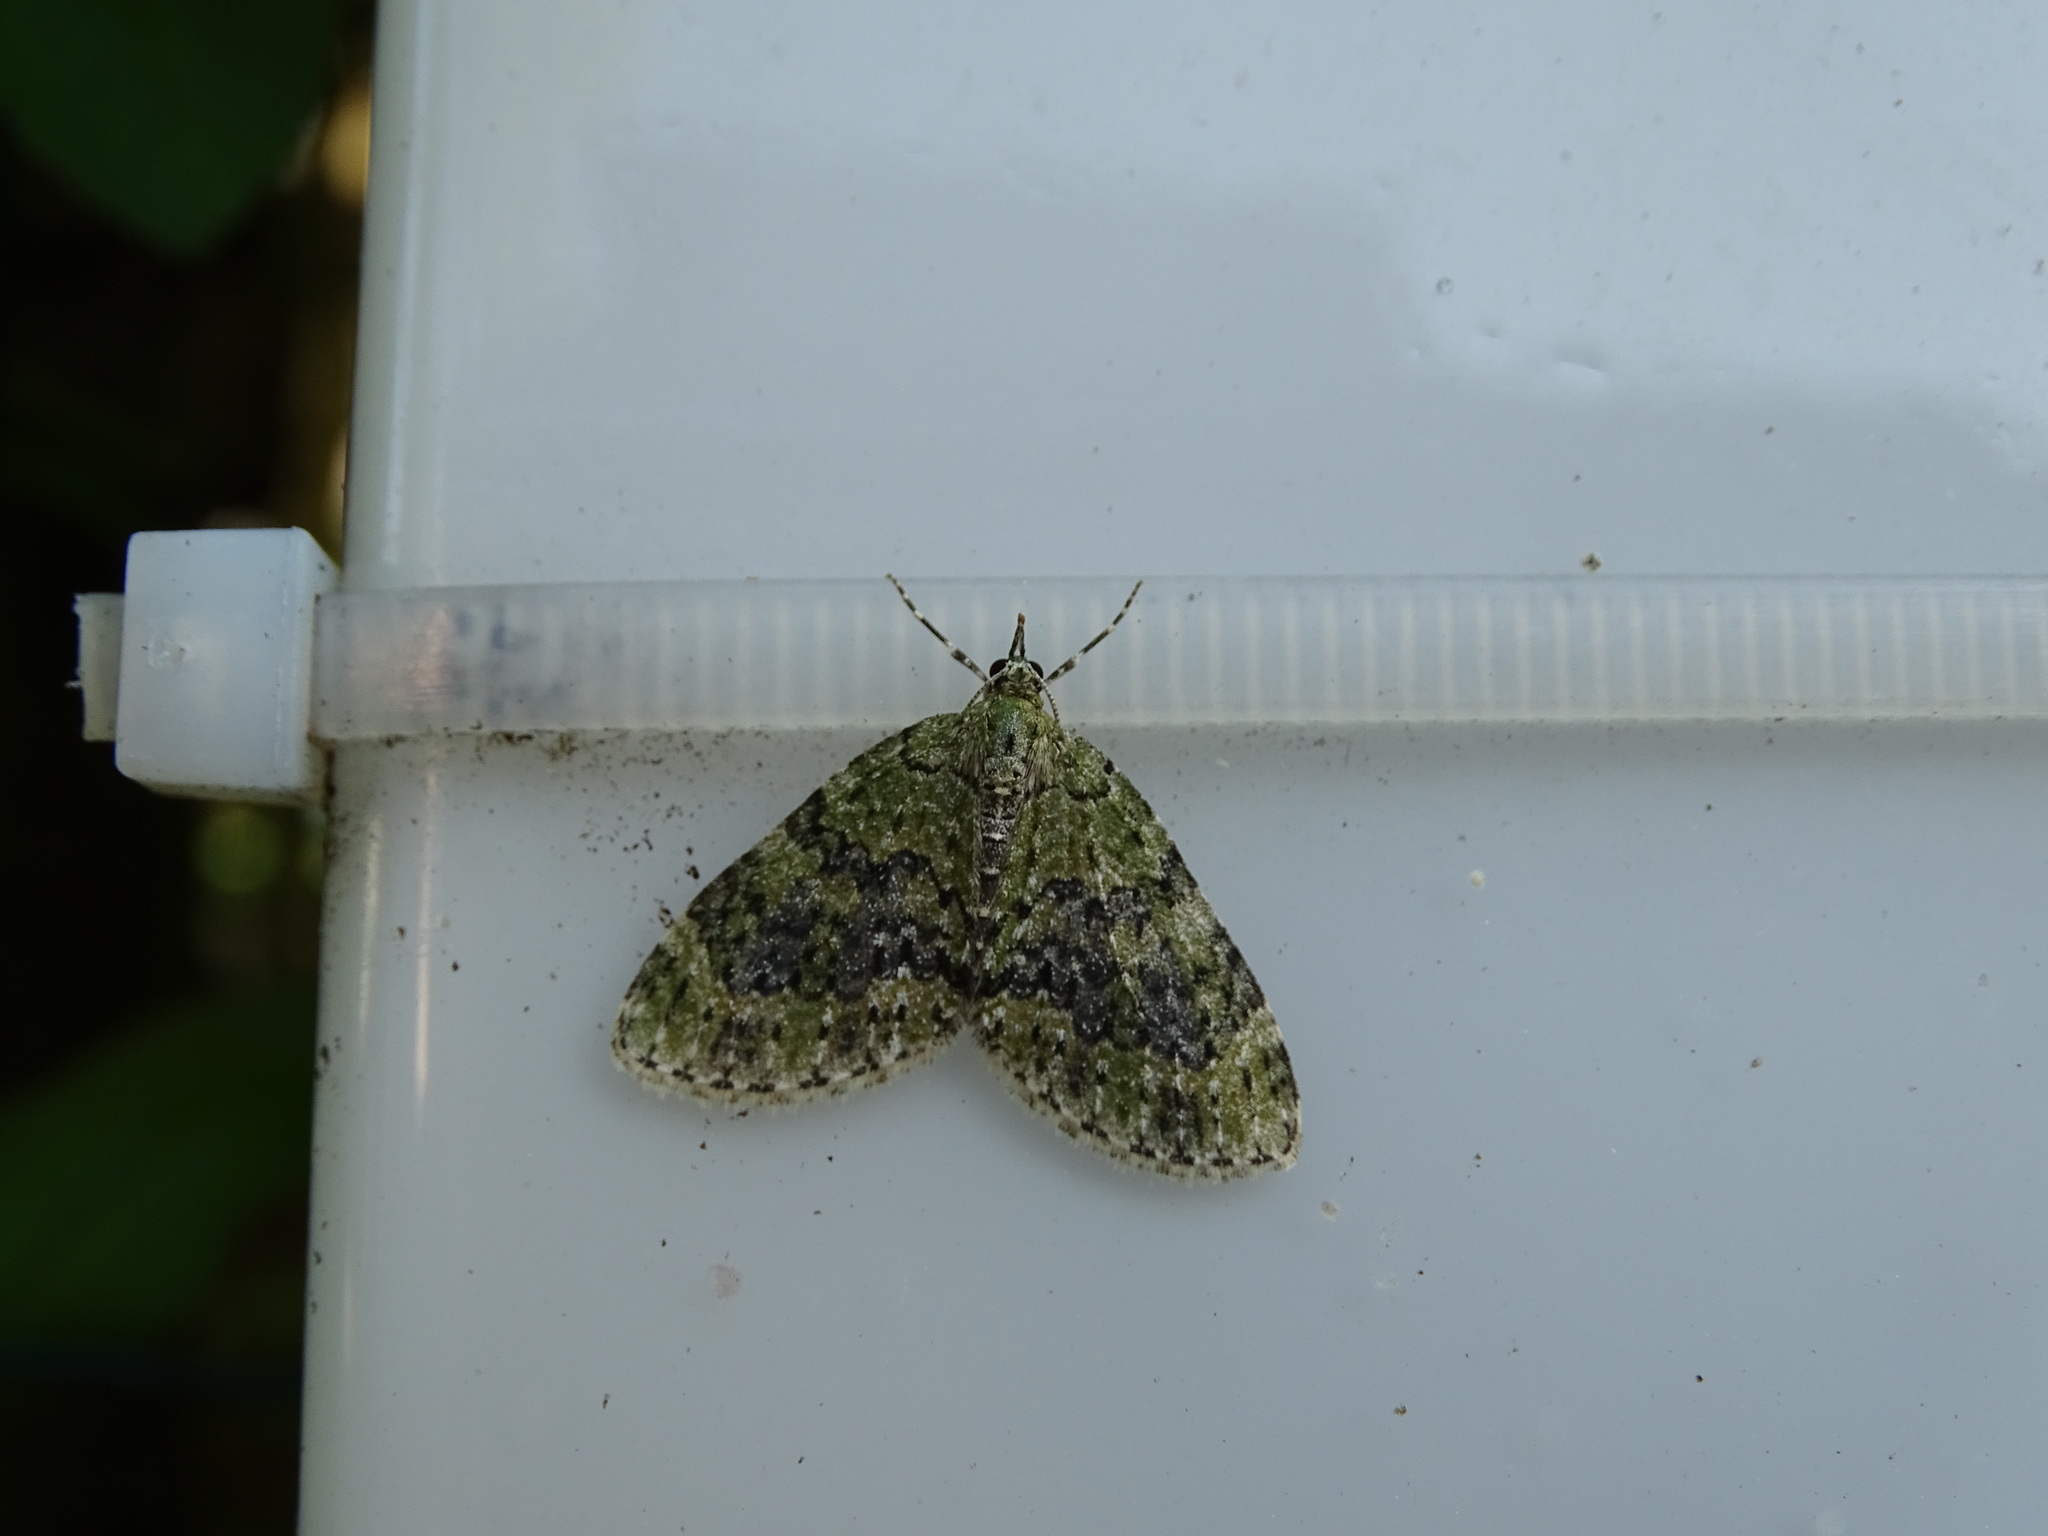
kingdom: Animalia
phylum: Arthropoda
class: Insecta
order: Lepidoptera
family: Geometridae
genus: Acasis
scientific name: Acasis viretata
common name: Yellow-barred brindle
